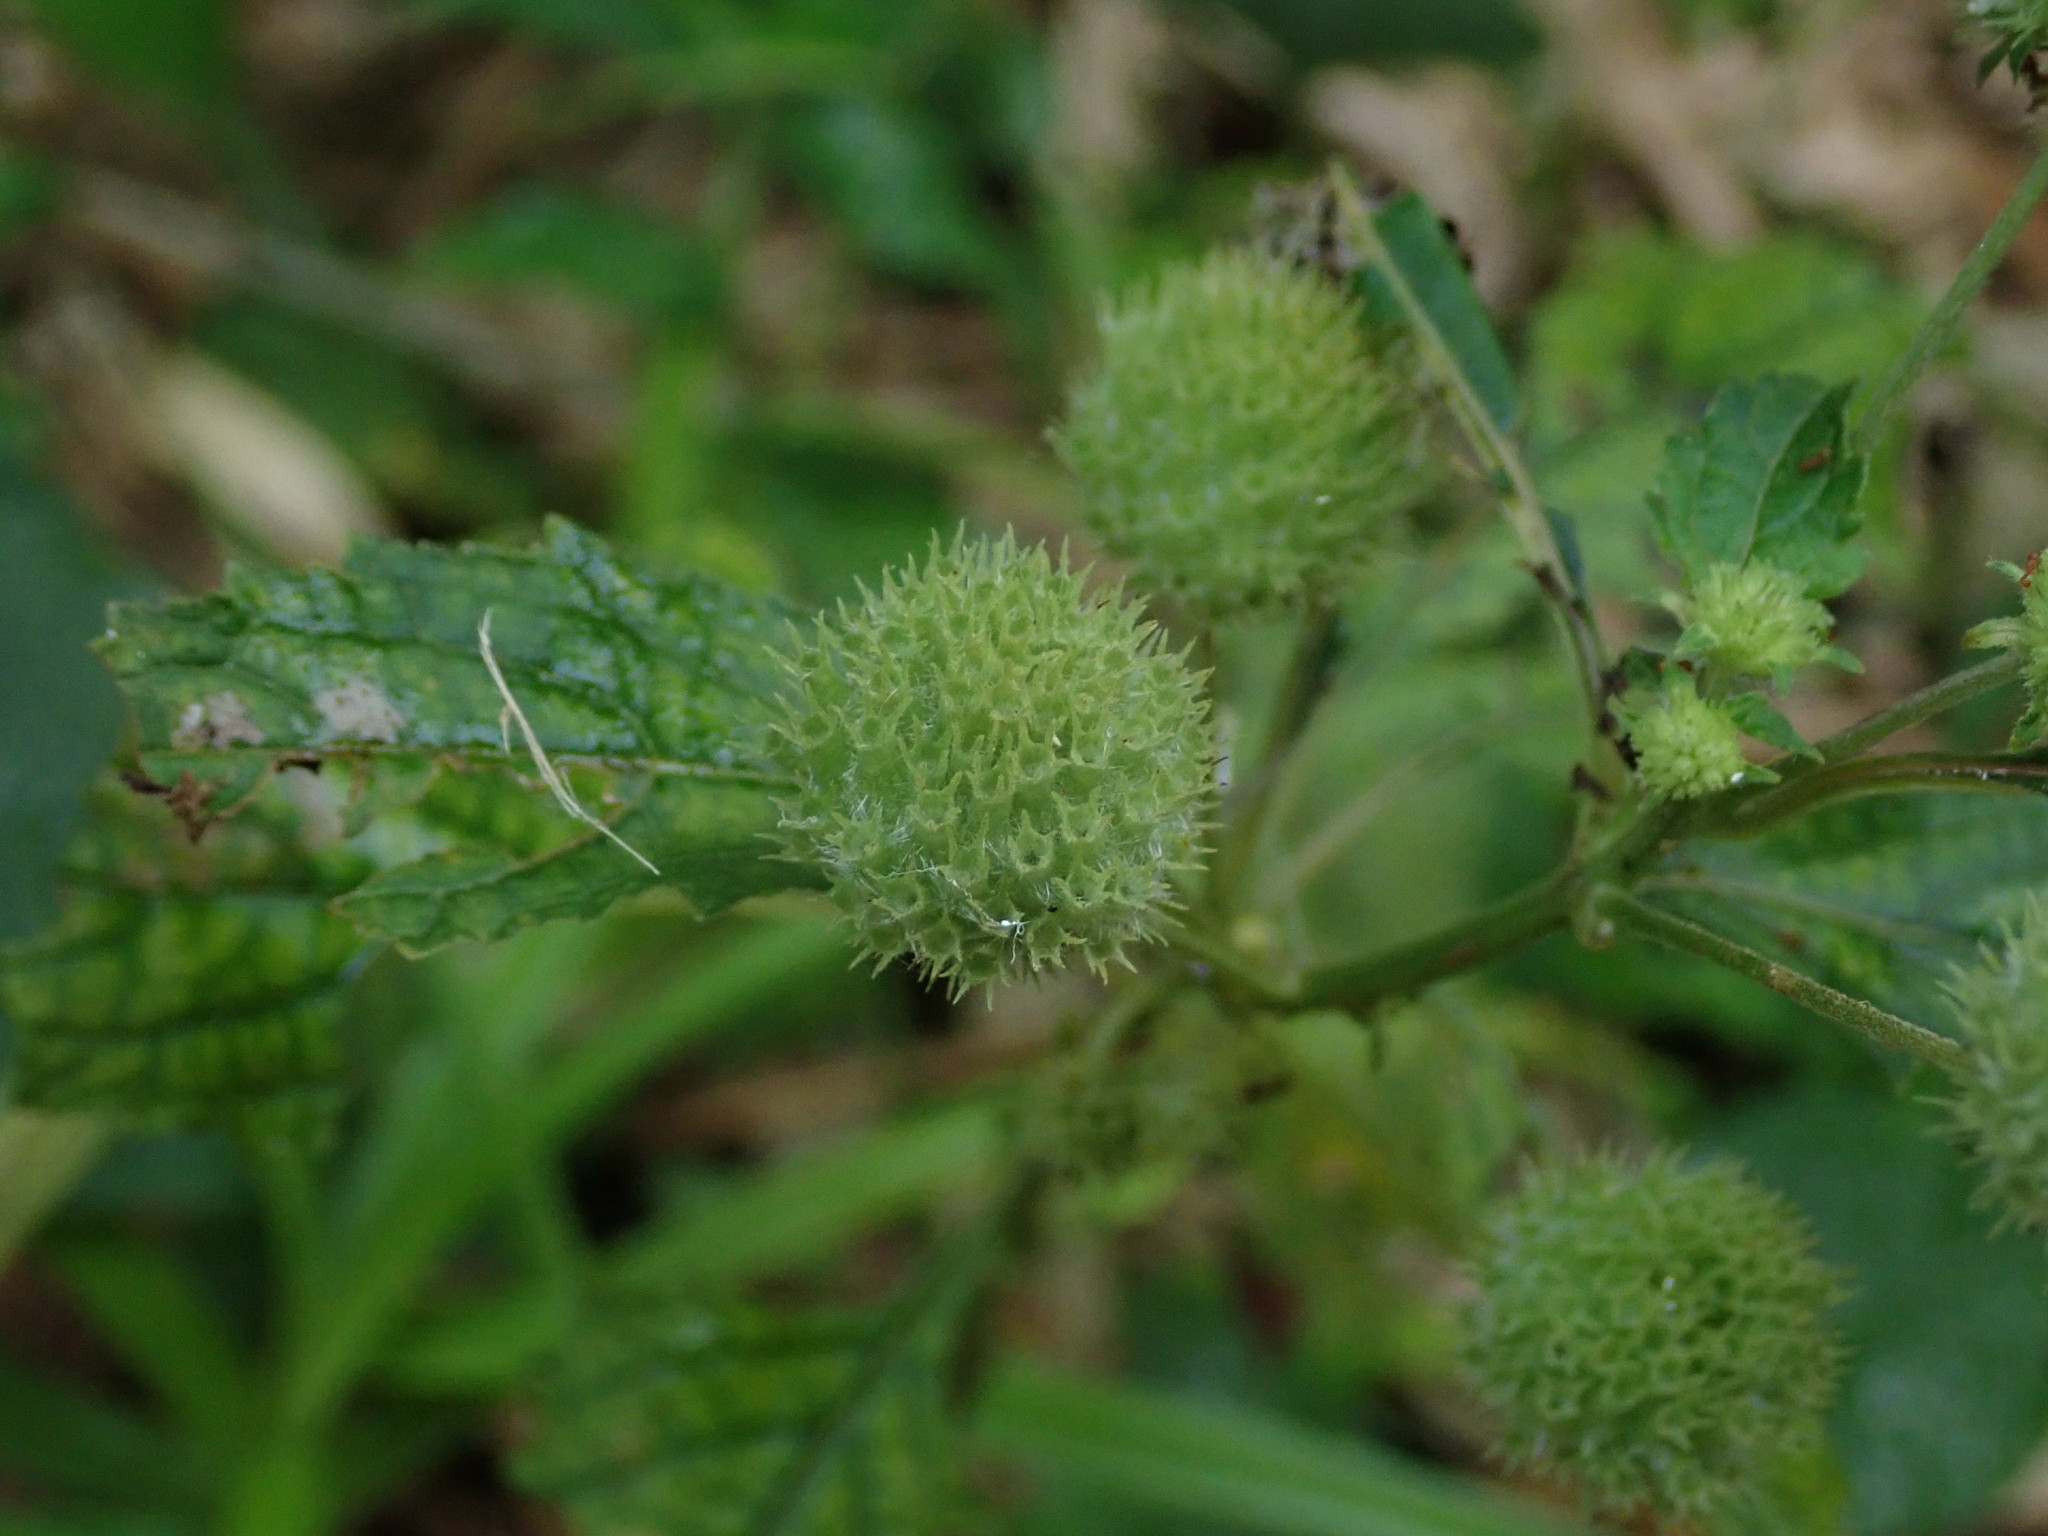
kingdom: Plantae
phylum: Tracheophyta
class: Magnoliopsida
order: Lamiales
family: Lamiaceae
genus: Hyptis
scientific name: Hyptis capitata
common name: False ironwort
